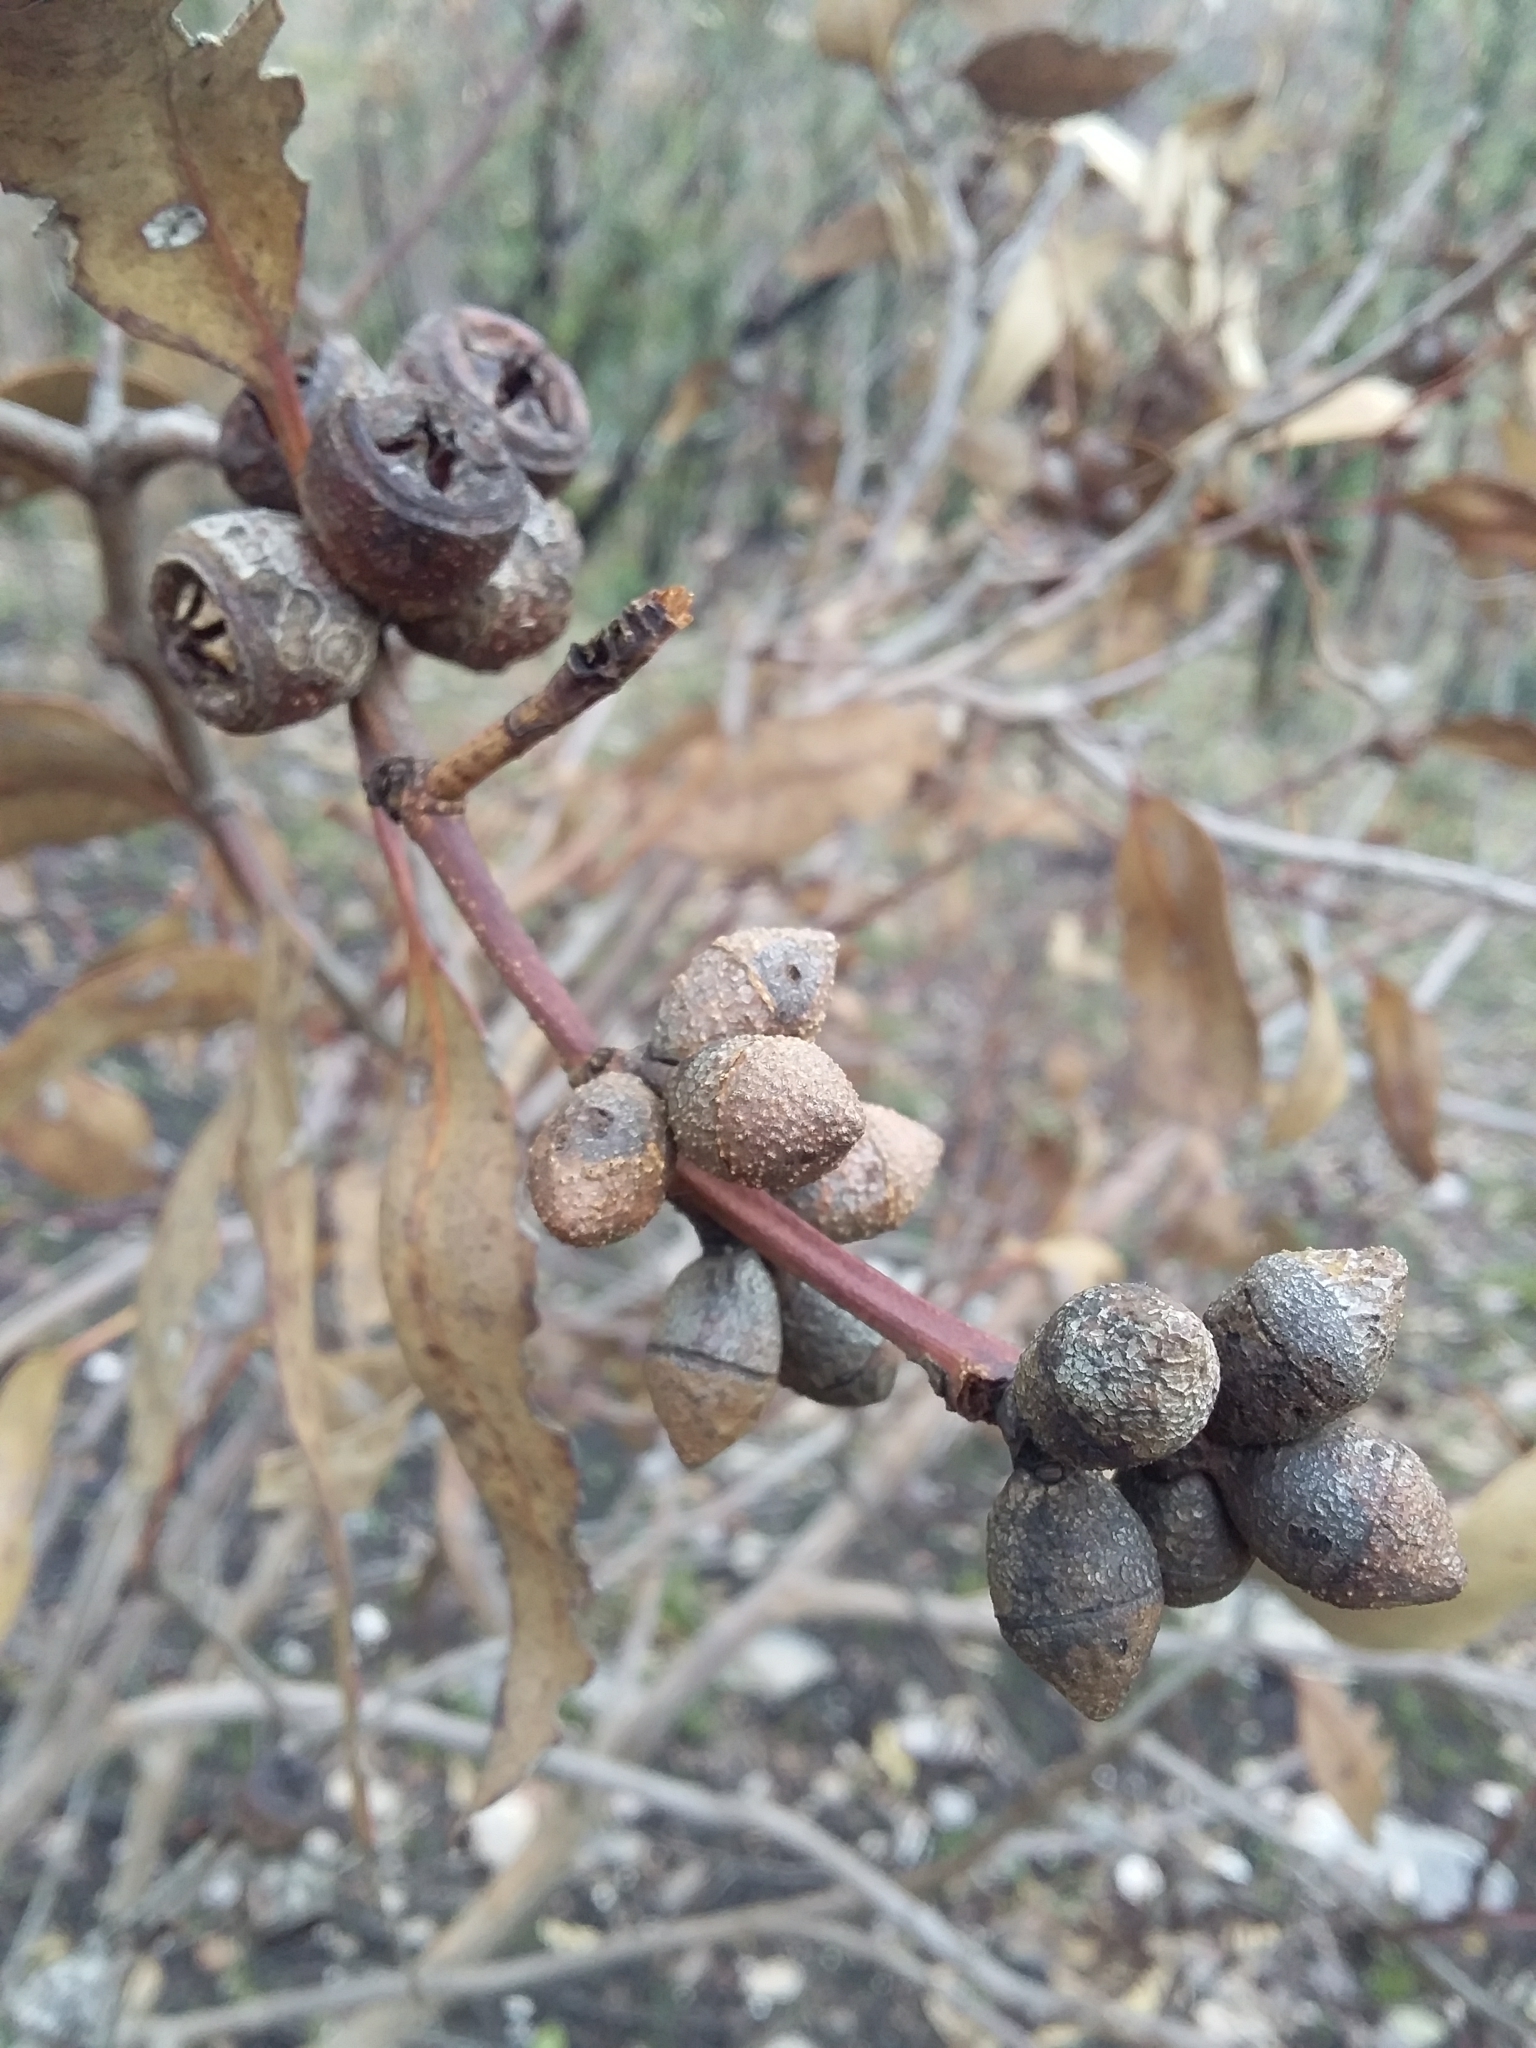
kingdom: Plantae
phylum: Tracheophyta
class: Magnoliopsida
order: Myrtales
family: Myrtaceae
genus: Eucalyptus
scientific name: Eucalyptus cosmophylla
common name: Bog-gum
